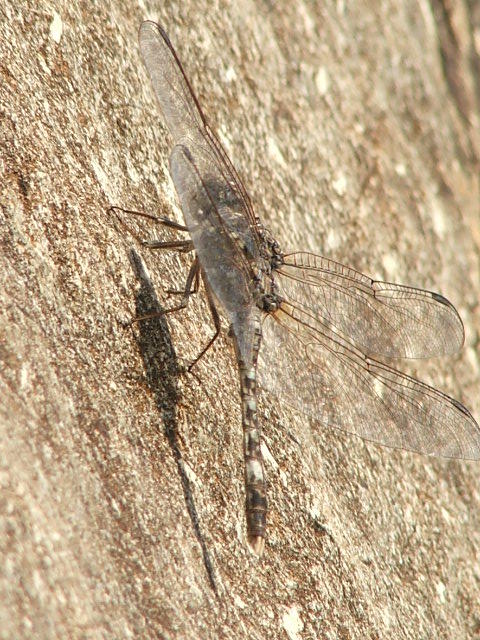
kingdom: Animalia
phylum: Arthropoda
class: Insecta
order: Odonata
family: Libellulidae
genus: Bradinopyga
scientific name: Bradinopyga cornuta
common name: Flecked wall-skimmer
